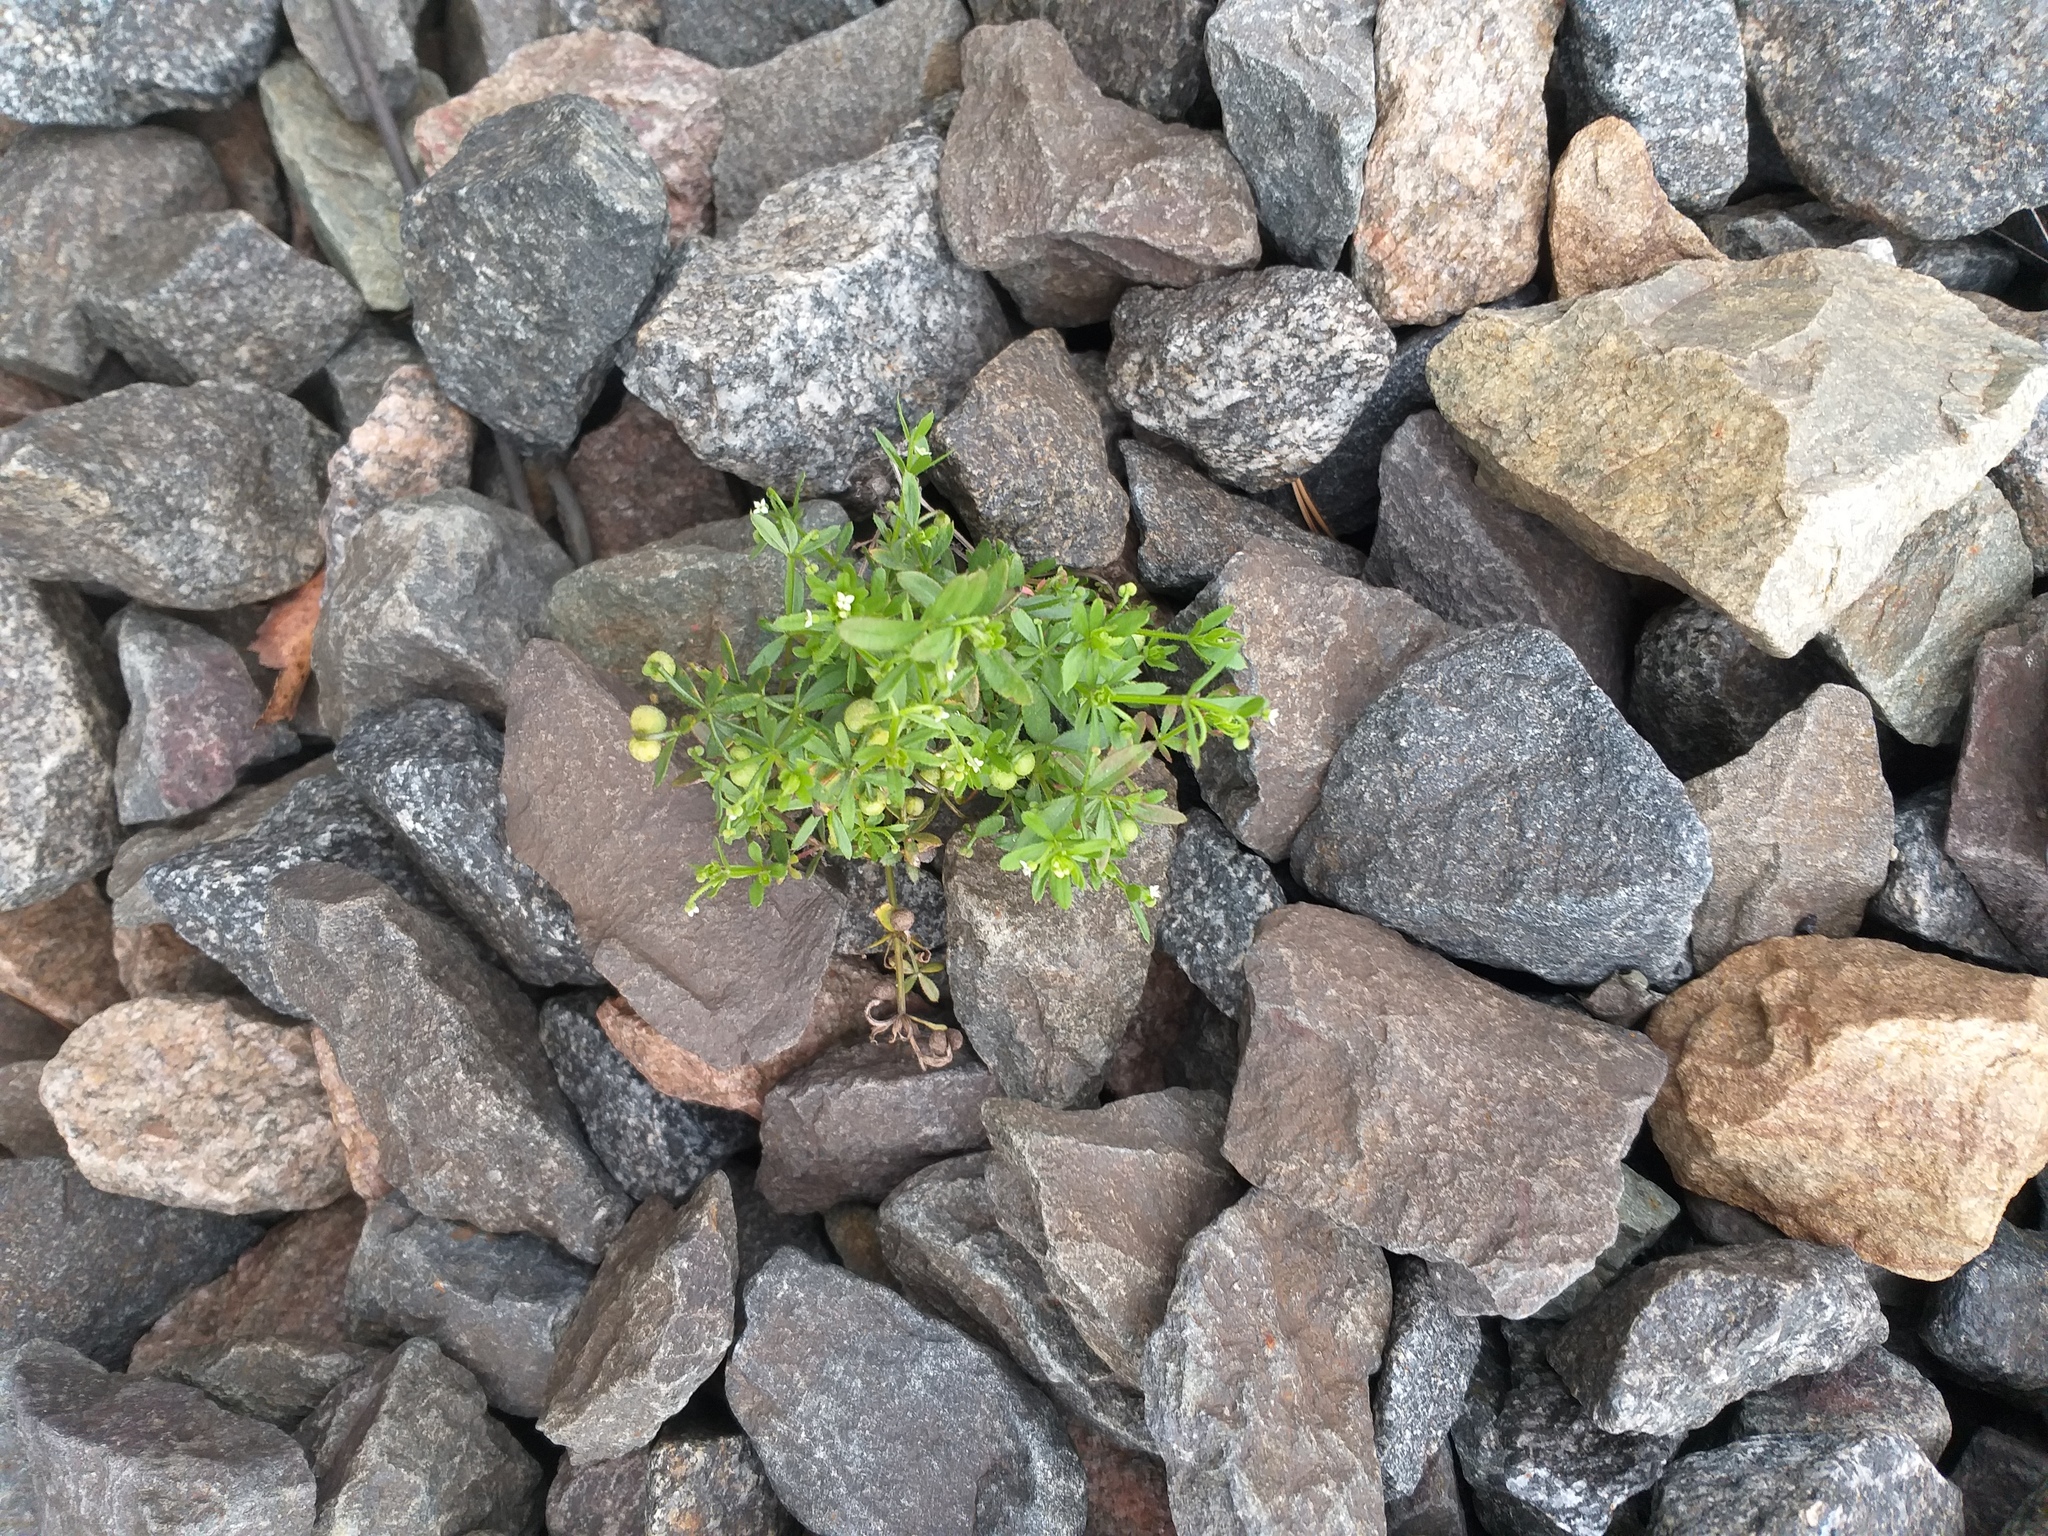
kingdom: Plantae
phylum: Tracheophyta
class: Magnoliopsida
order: Gentianales
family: Rubiaceae
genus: Galium
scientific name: Galium tricornutum
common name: Corn cleavers
